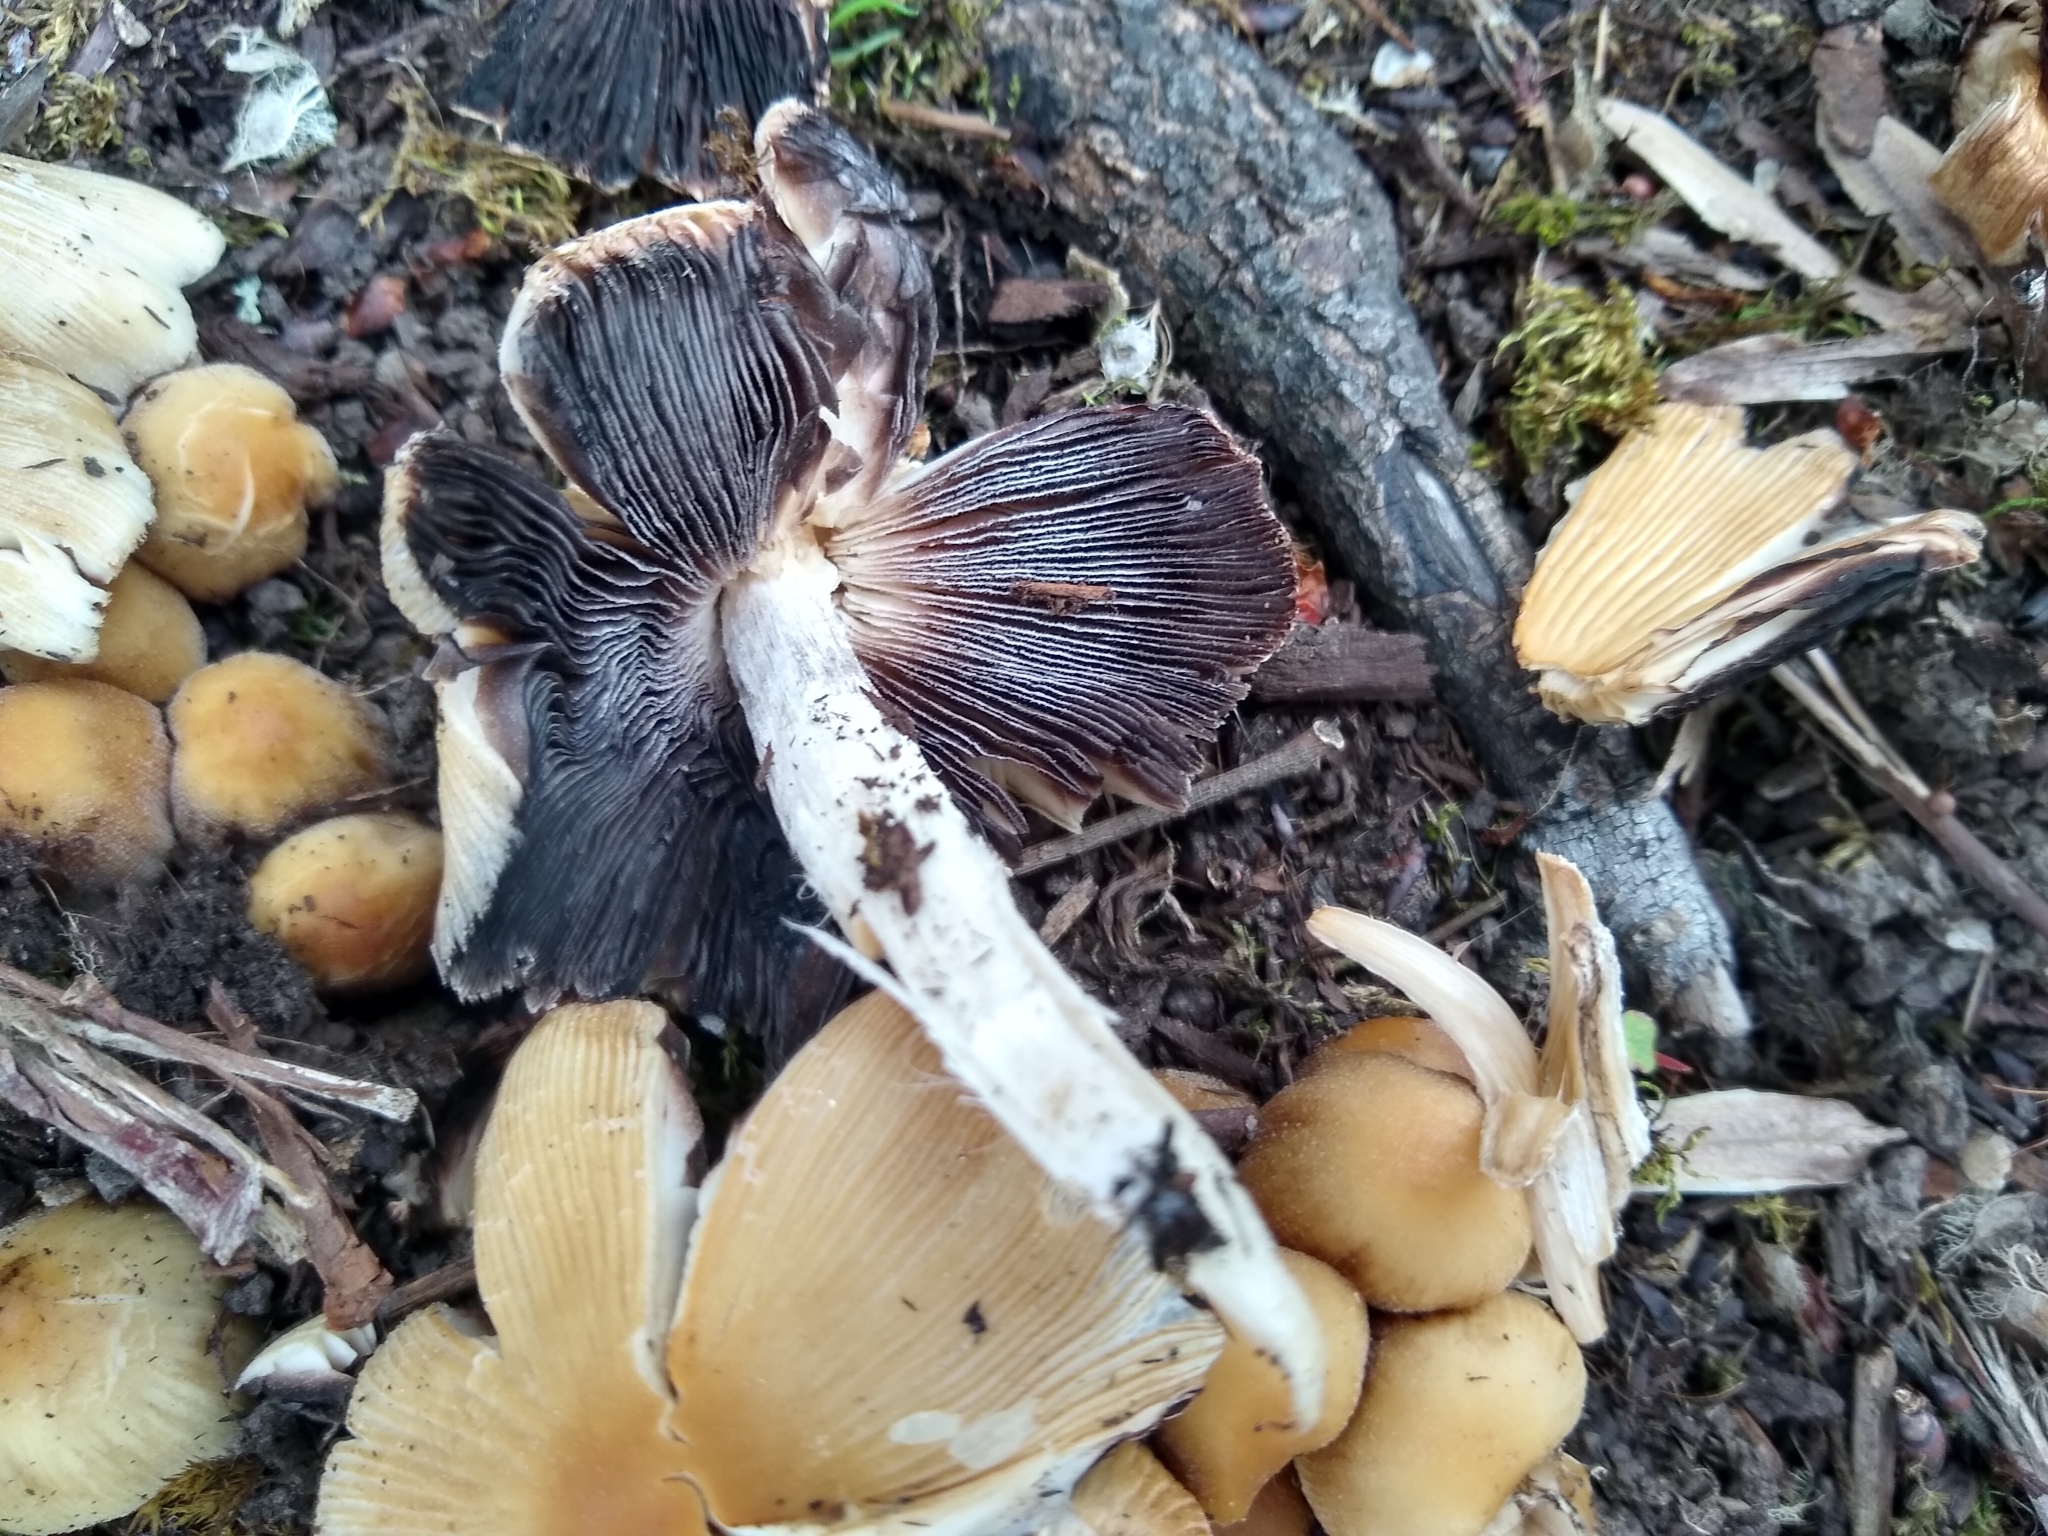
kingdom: Fungi
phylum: Basidiomycota
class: Agaricomycetes
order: Agaricales
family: Psathyrellaceae
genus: Coprinellus
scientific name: Coprinellus micaceus
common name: Glistening ink-cap
